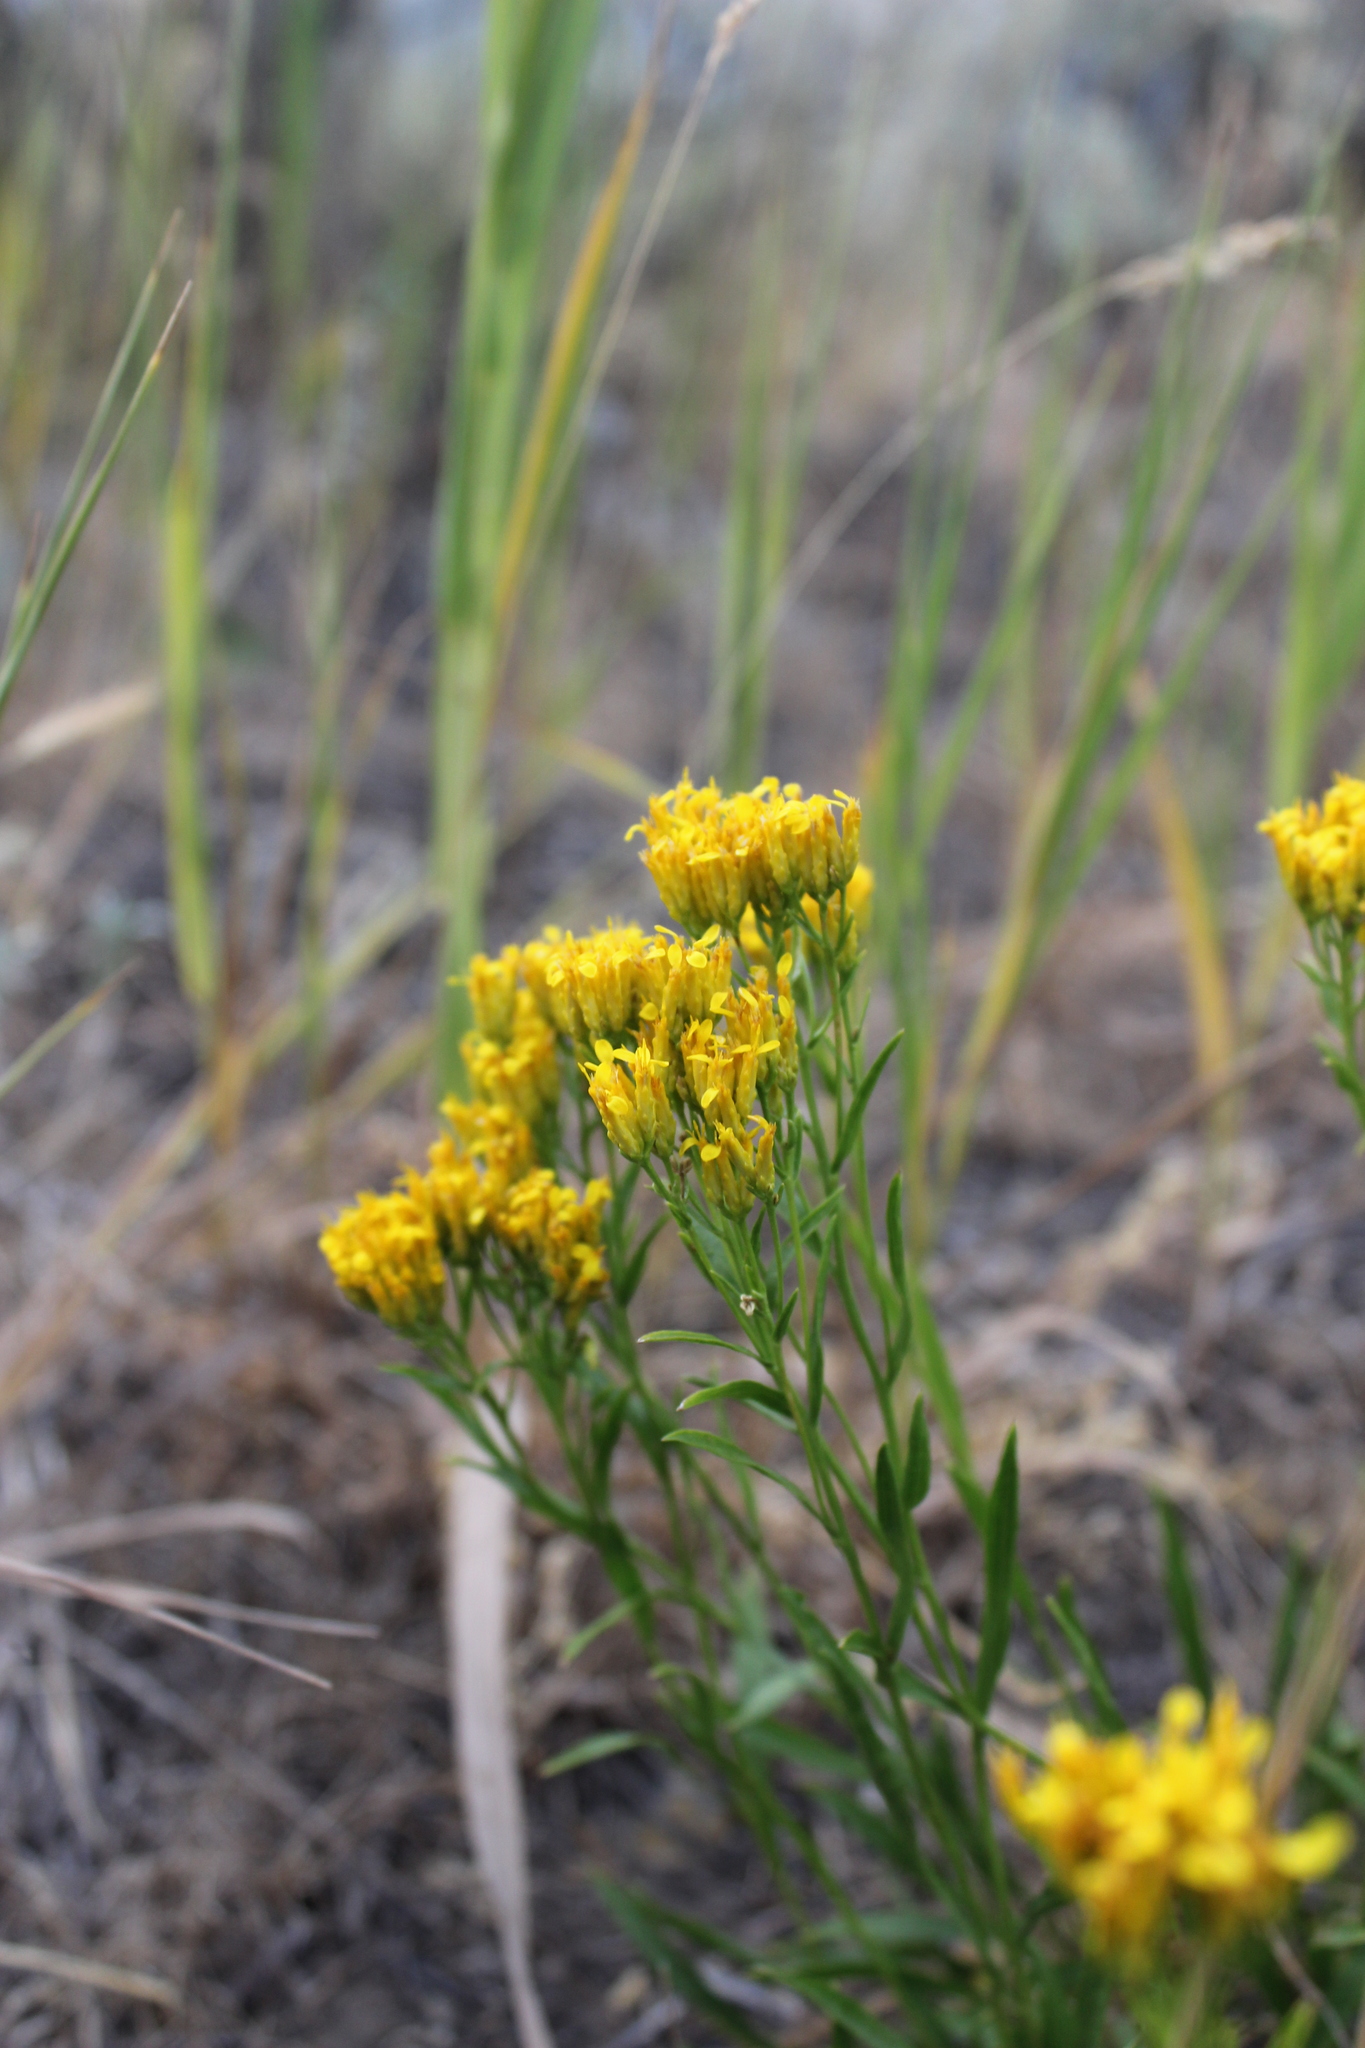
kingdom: Plantae
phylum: Tracheophyta
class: Magnoliopsida
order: Asterales
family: Asteraceae
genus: Chrysothamnus
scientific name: Chrysothamnus viscidiflorus
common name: Yellow rabbitbrush
